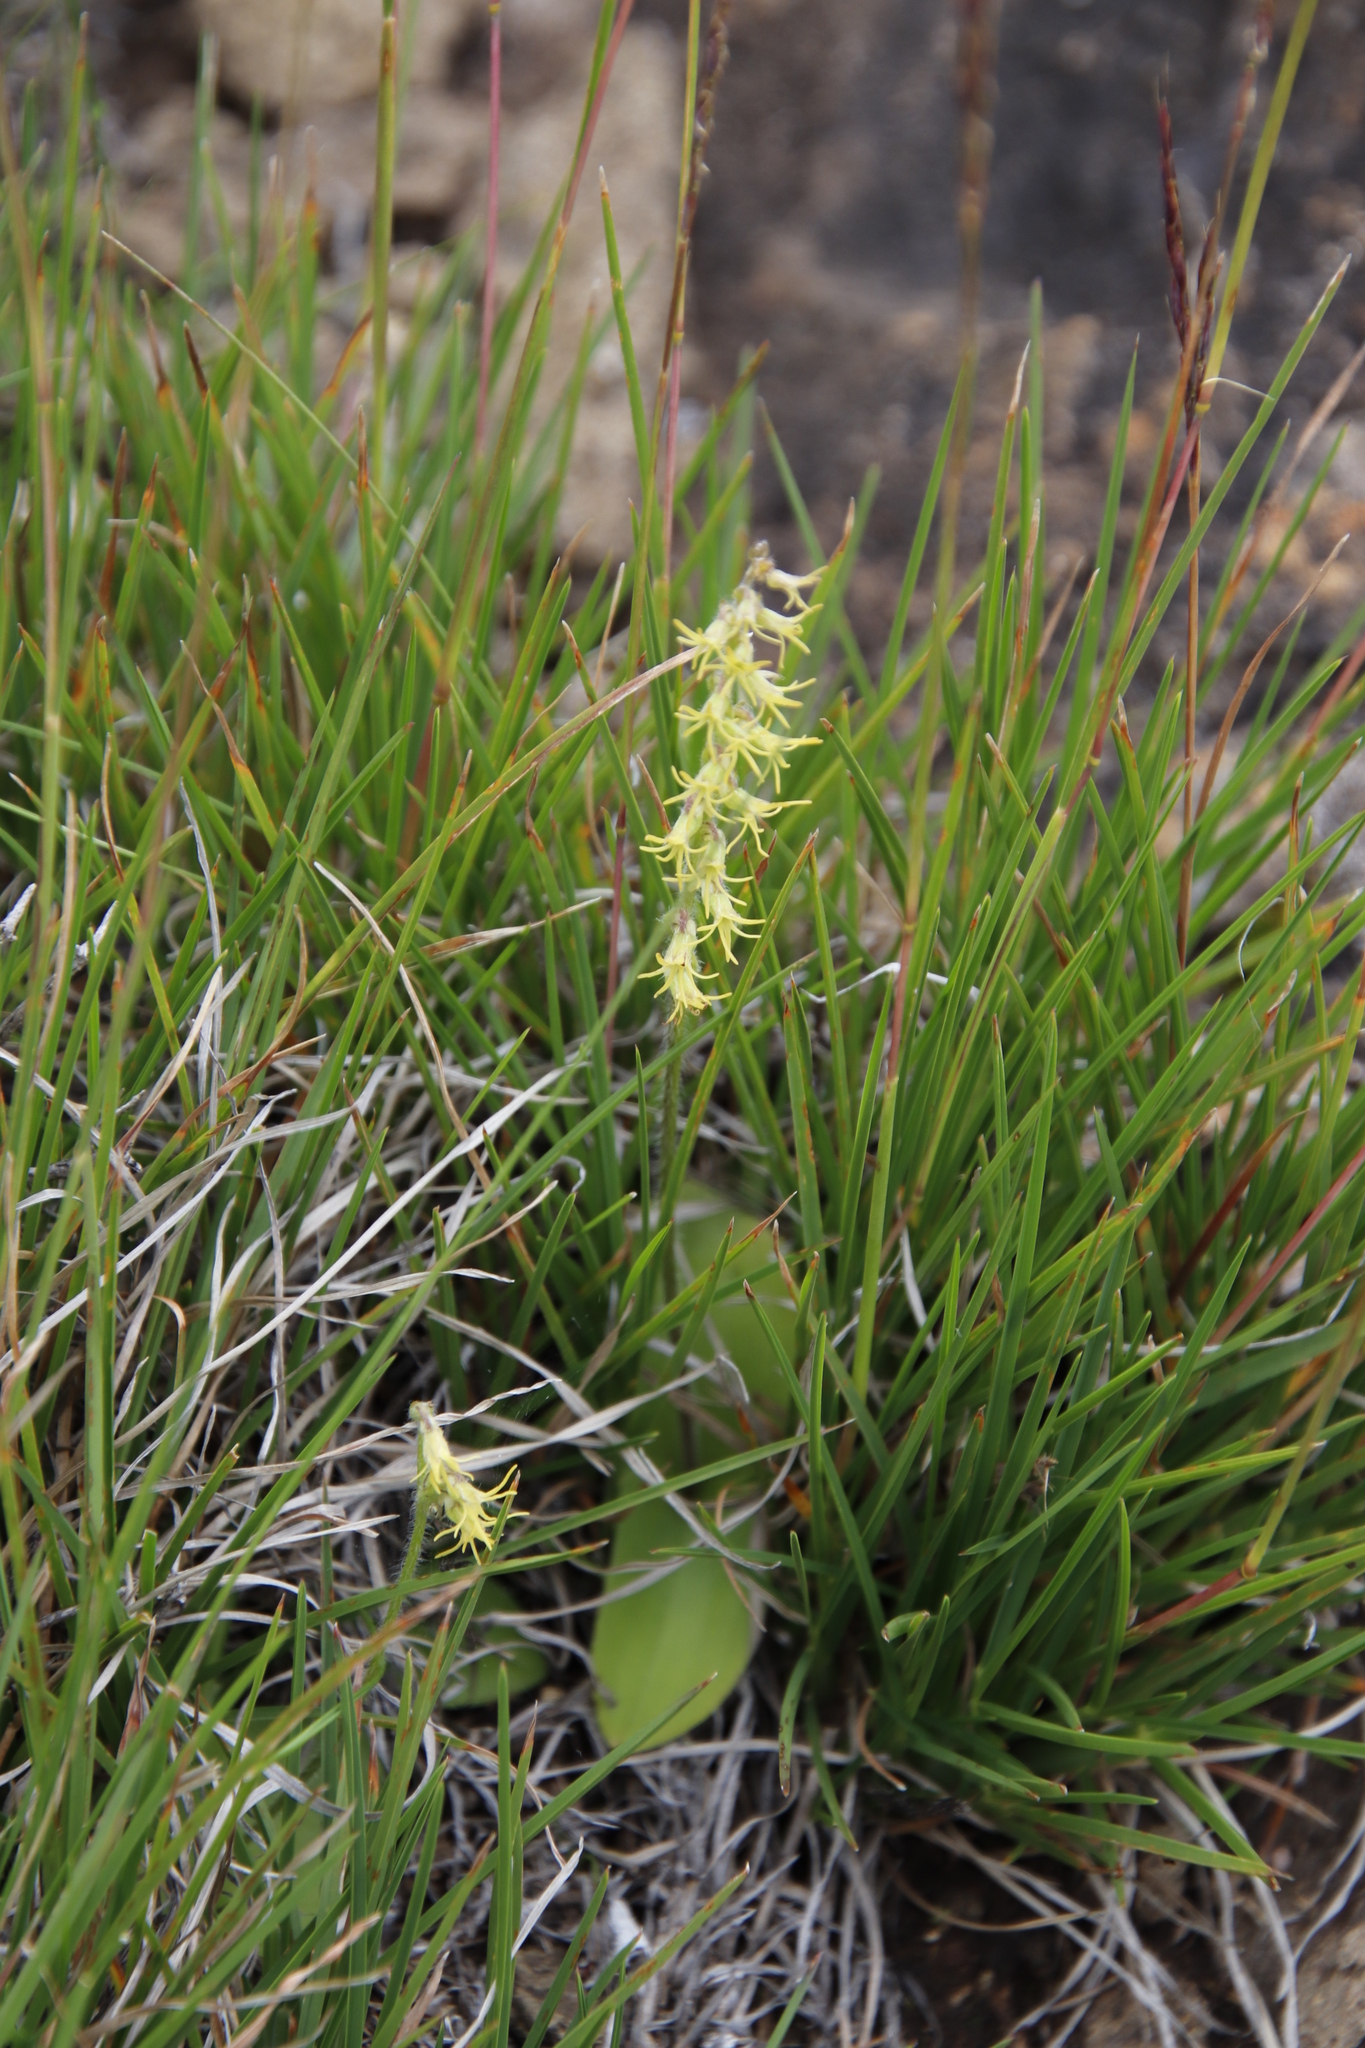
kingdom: Plantae
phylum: Tracheophyta
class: Liliopsida
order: Asparagales
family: Orchidaceae
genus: Holothrix
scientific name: Holothrix incurva
